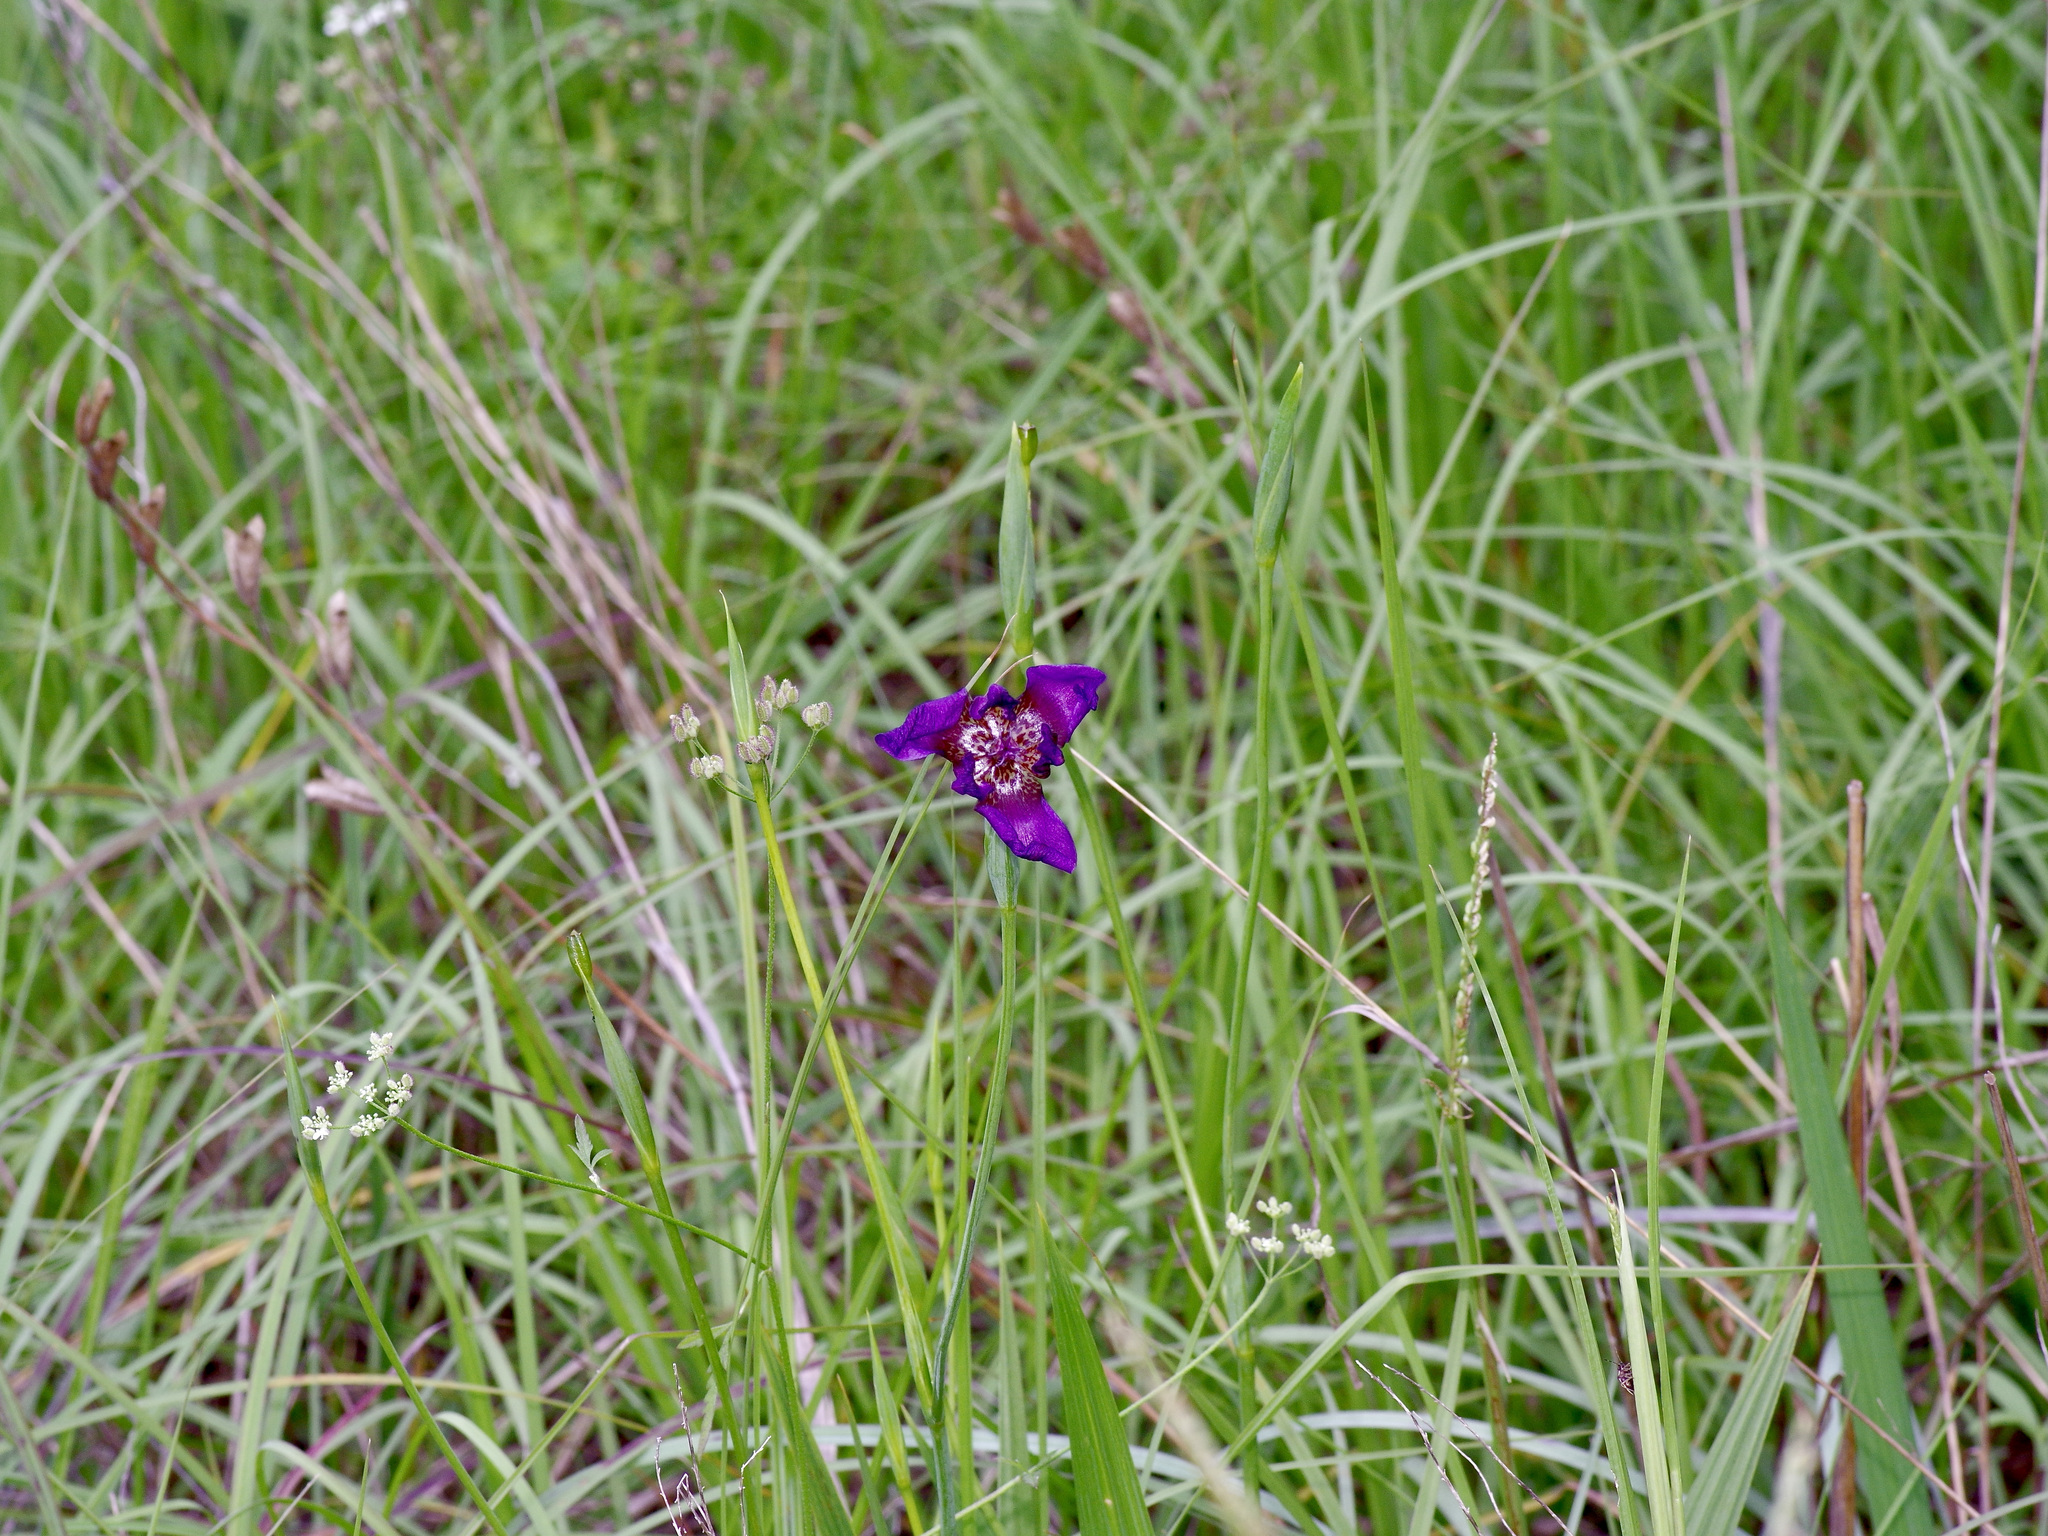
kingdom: Plantae
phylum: Tracheophyta
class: Liliopsida
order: Asparagales
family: Iridaceae
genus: Alophia
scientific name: Alophia drummondii
